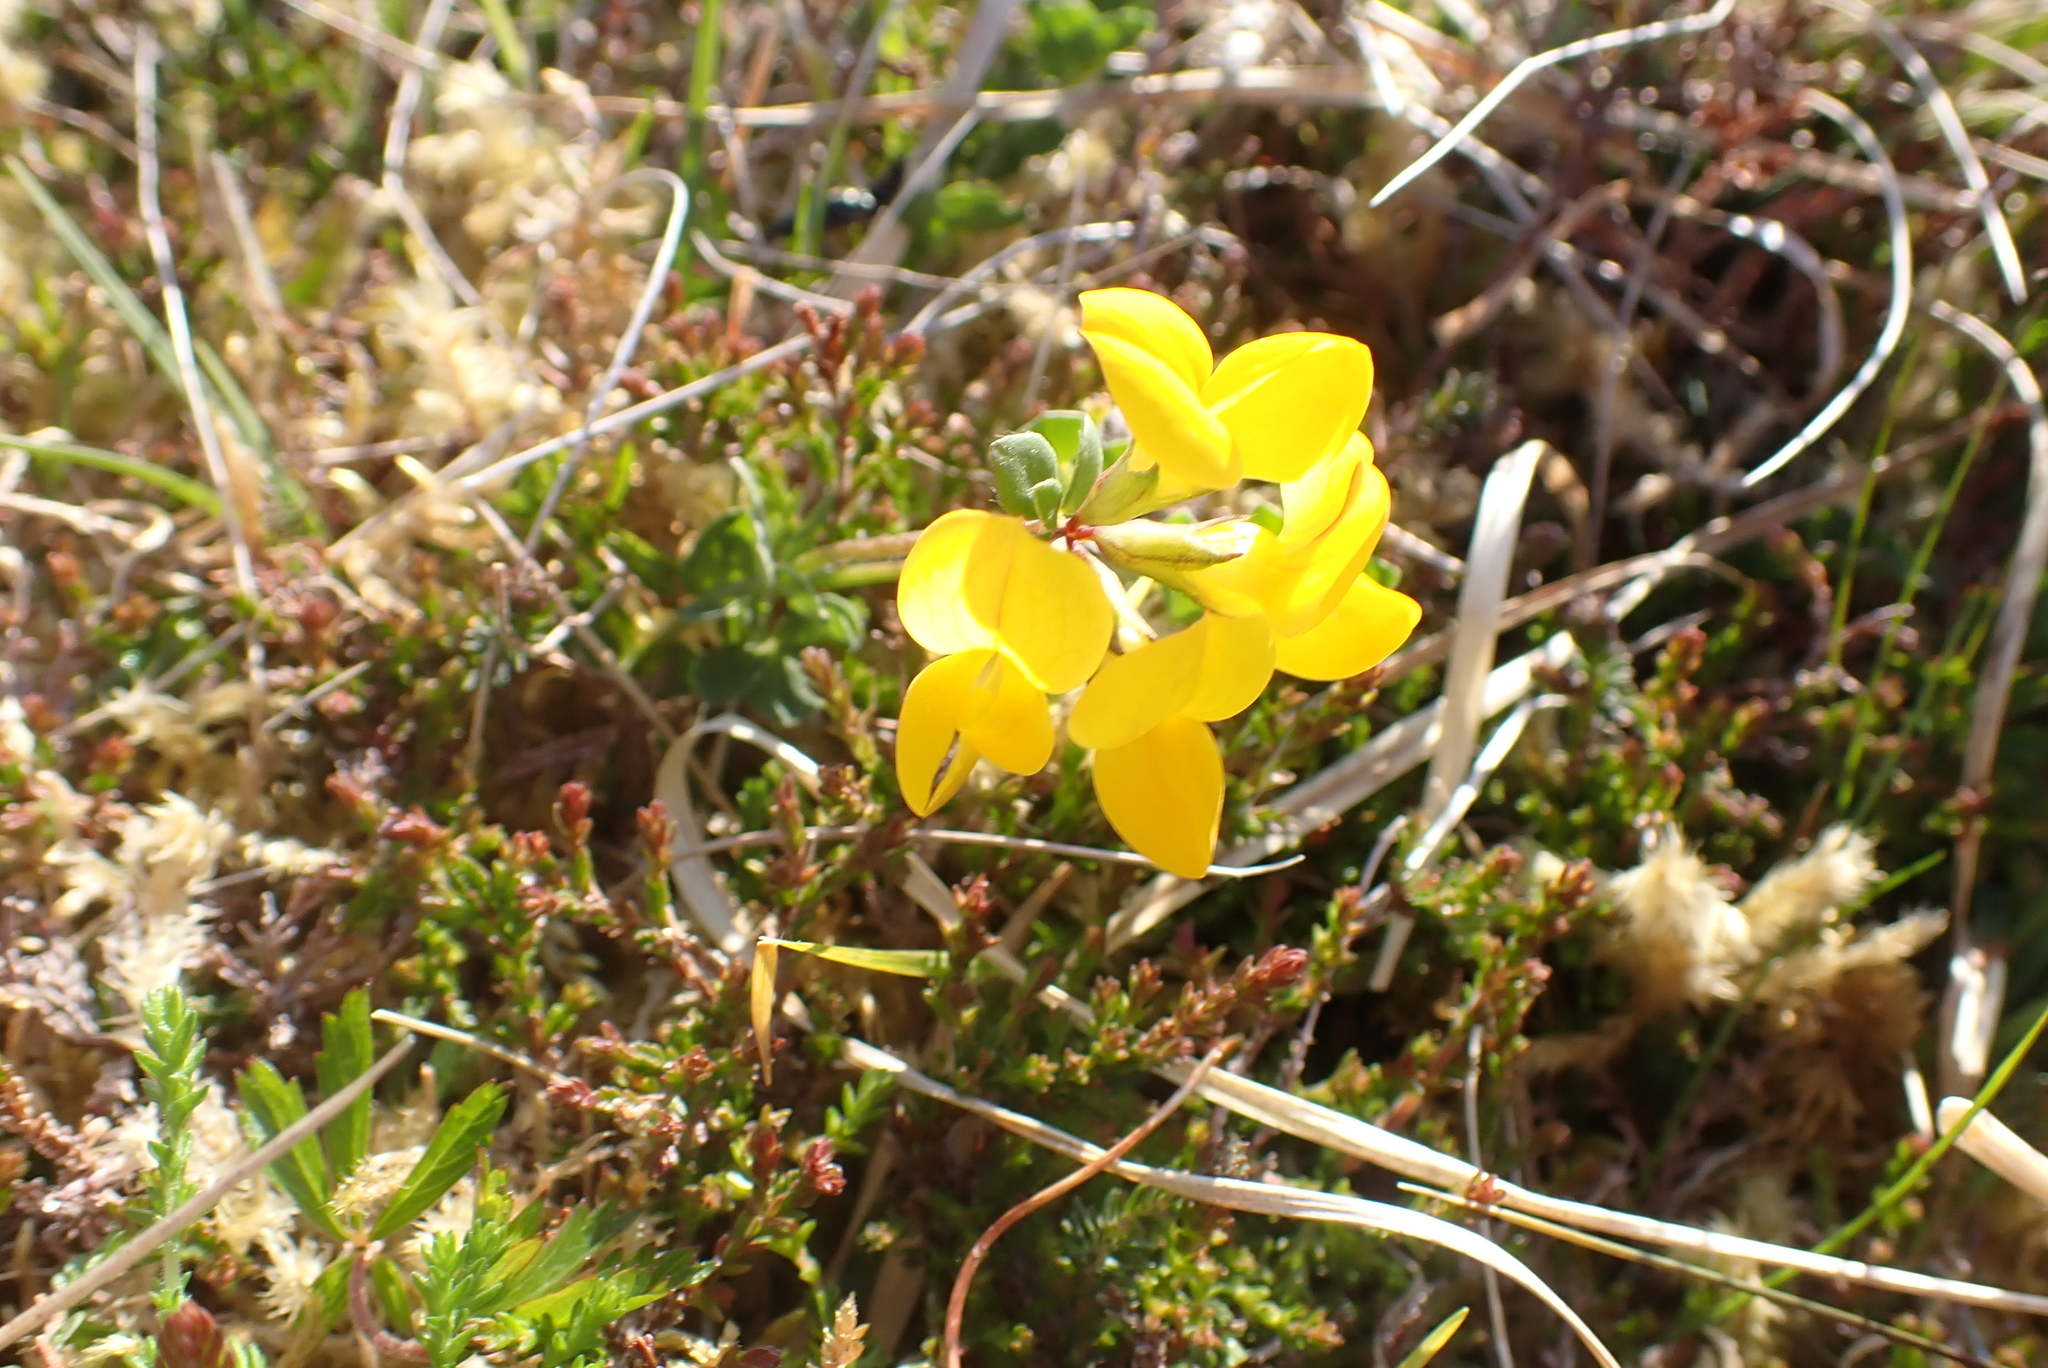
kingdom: Plantae
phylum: Tracheophyta
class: Magnoliopsida
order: Fabales
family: Fabaceae
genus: Lotus
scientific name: Lotus corniculatus
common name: Common bird's-foot-trefoil
